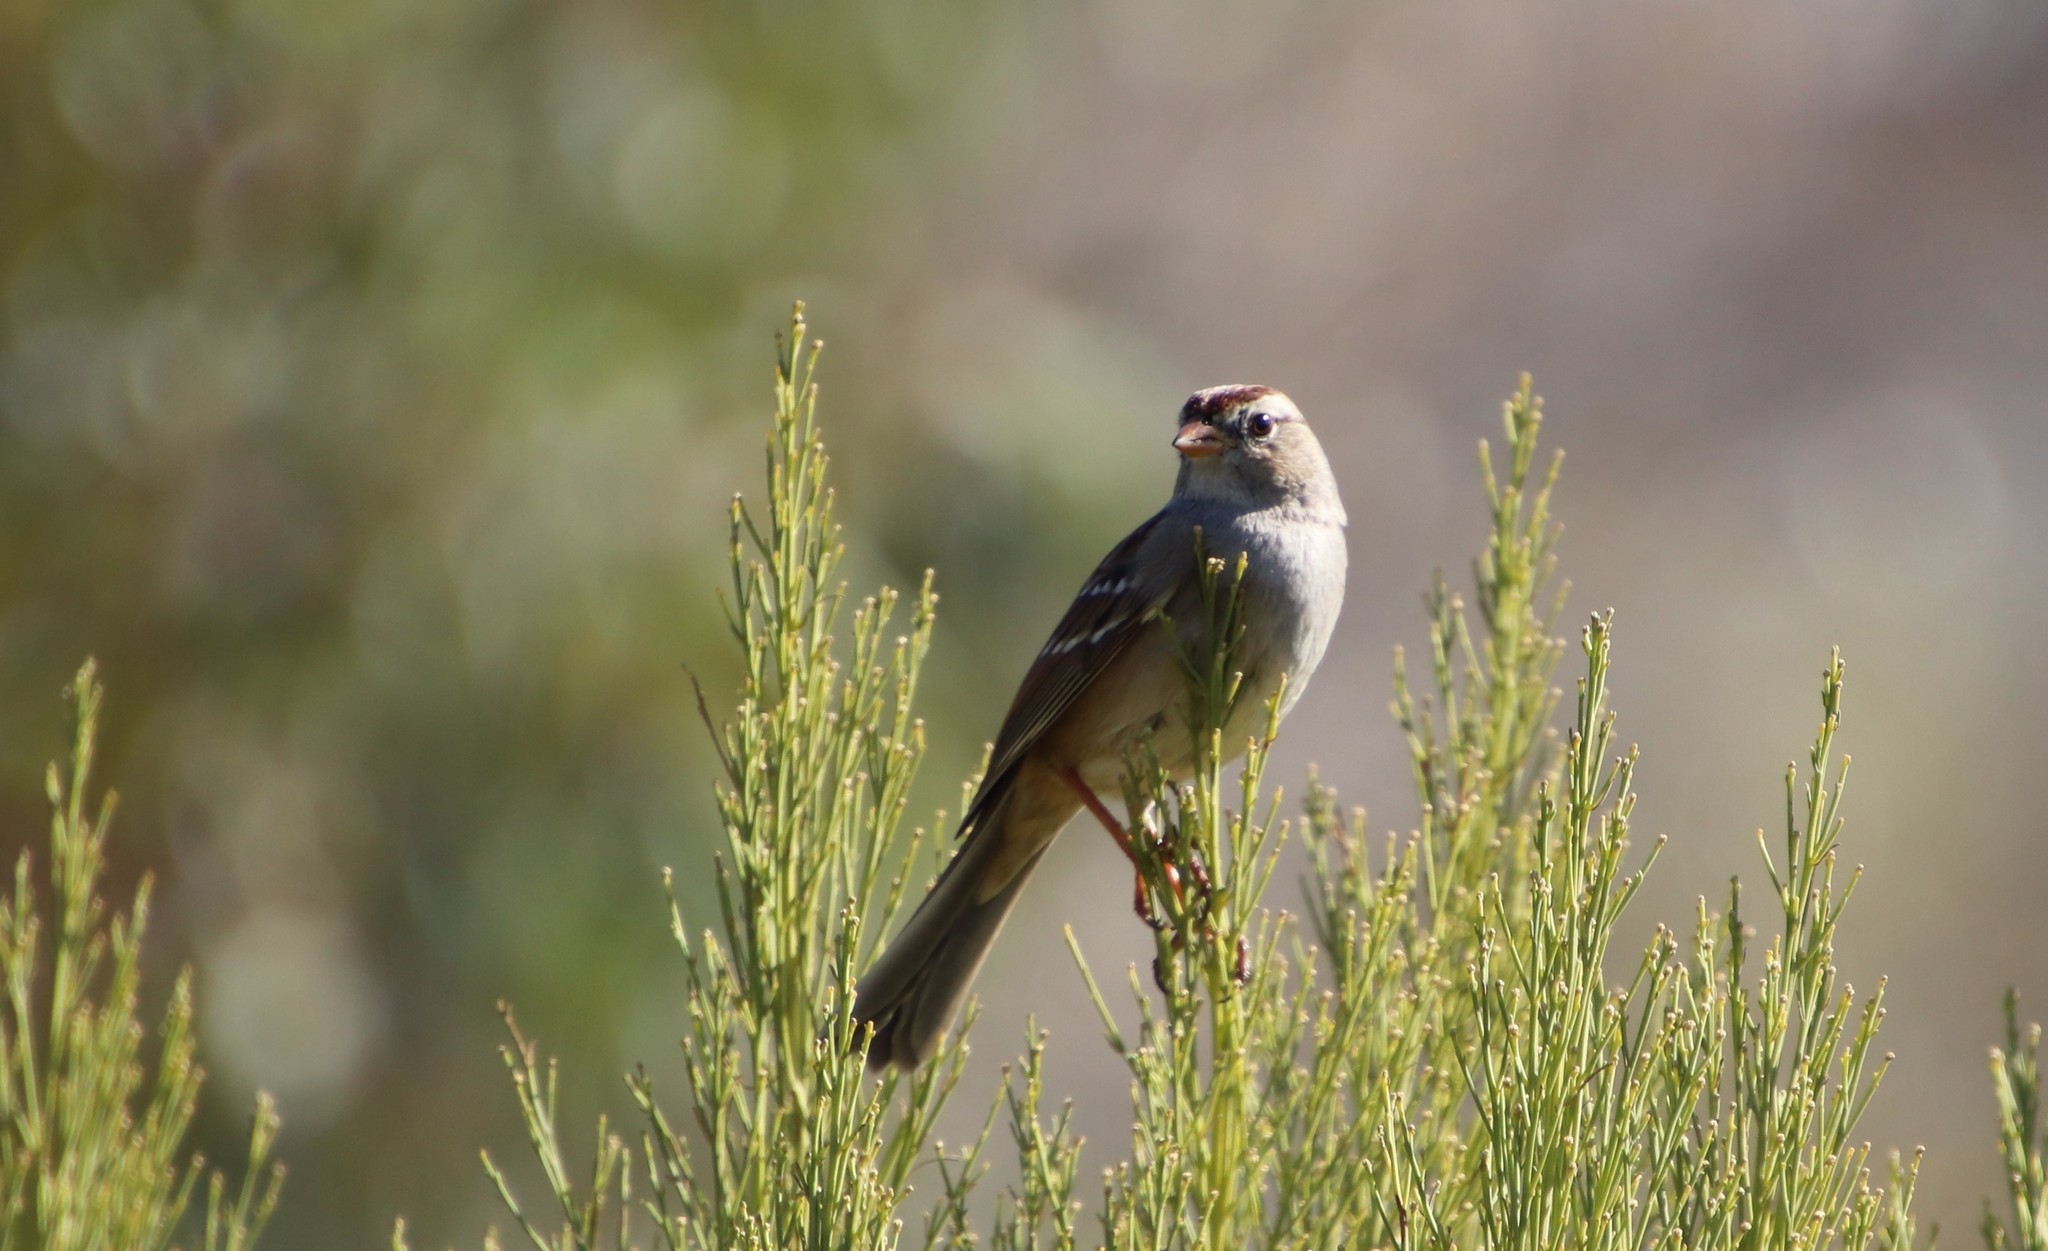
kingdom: Animalia
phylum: Chordata
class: Aves
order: Passeriformes
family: Passerellidae
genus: Zonotrichia
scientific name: Zonotrichia leucophrys
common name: White-crowned sparrow
